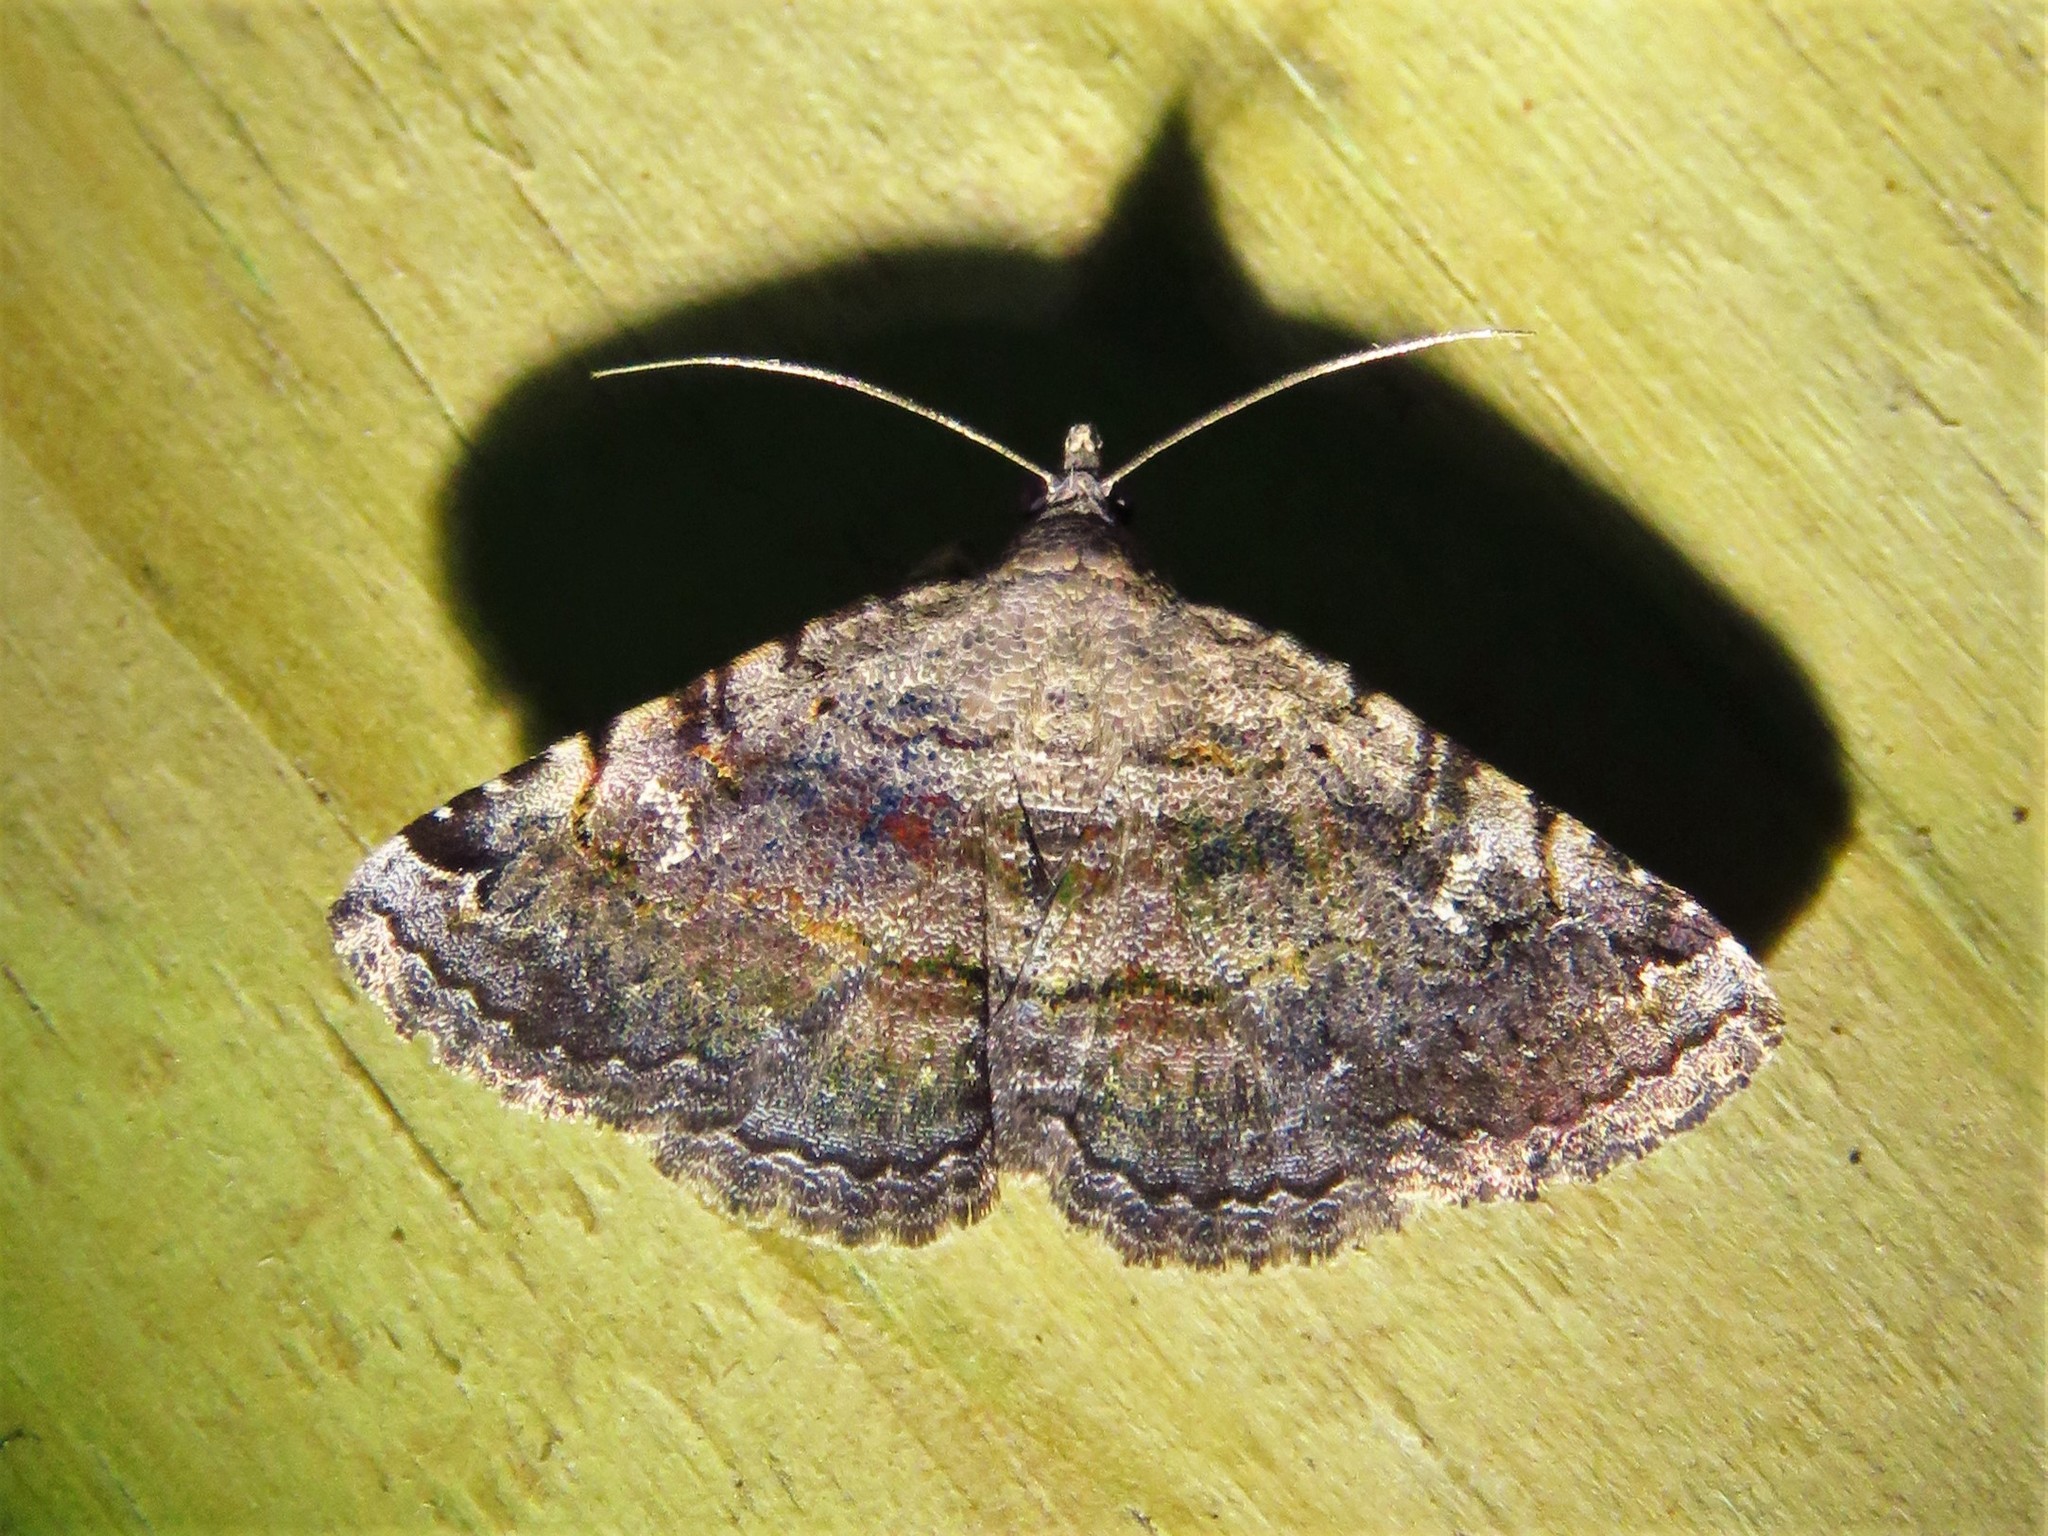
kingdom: Animalia
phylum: Arthropoda
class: Insecta
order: Lepidoptera
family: Erebidae
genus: Toxonprucha
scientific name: Toxonprucha crudelis
